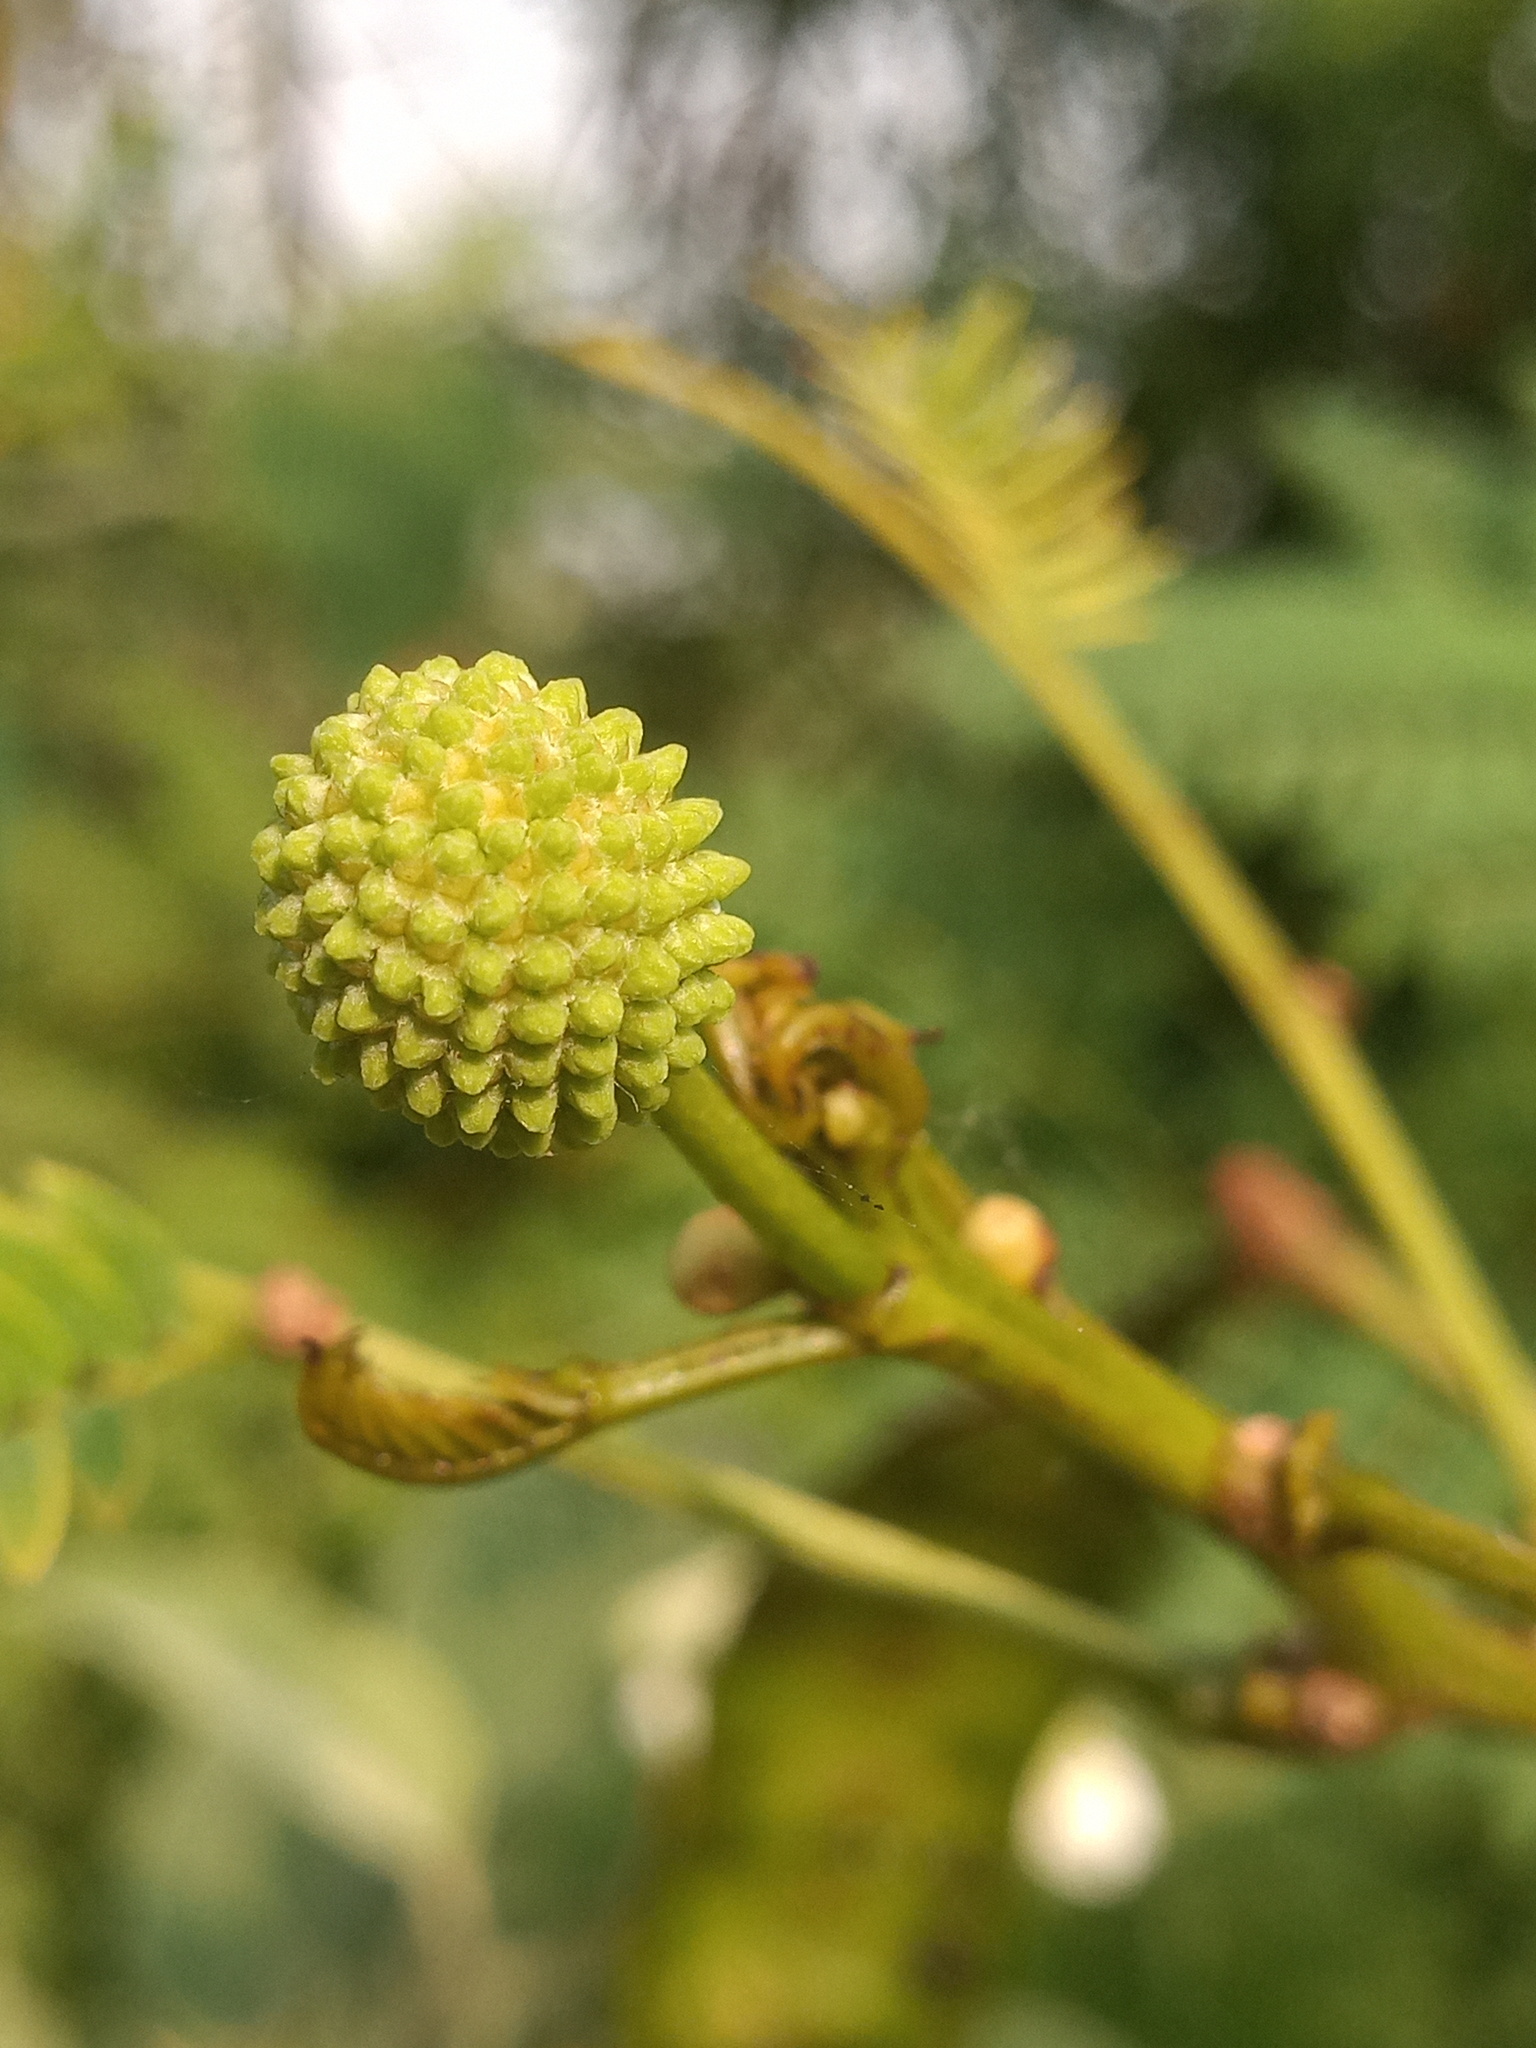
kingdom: Plantae
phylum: Tracheophyta
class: Magnoliopsida
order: Fabales
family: Fabaceae
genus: Leucaena
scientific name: Leucaena leucocephala
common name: White leadtree
